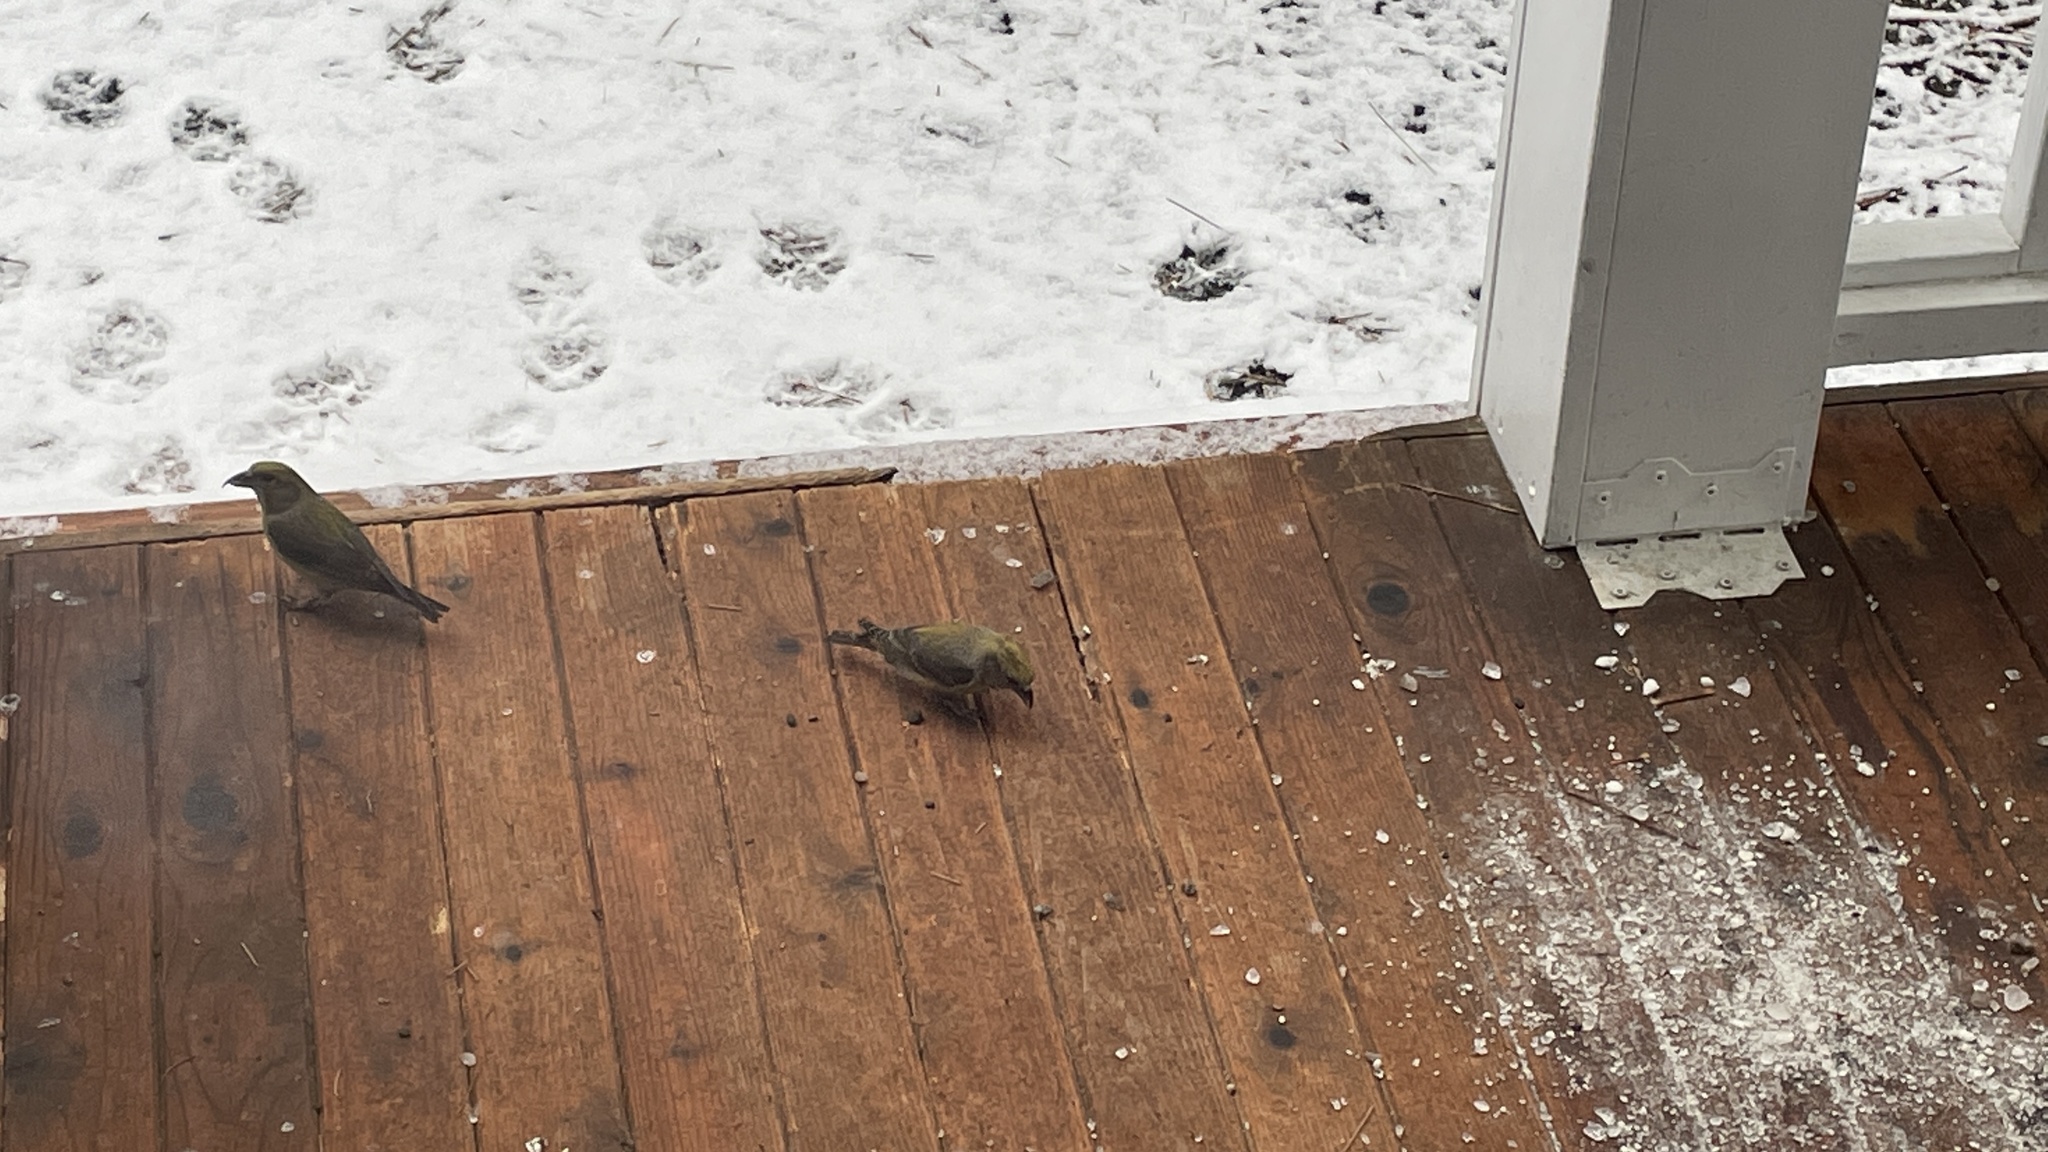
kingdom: Animalia
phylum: Chordata
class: Aves
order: Passeriformes
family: Fringillidae
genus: Loxia
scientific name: Loxia curvirostra
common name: Red crossbill
